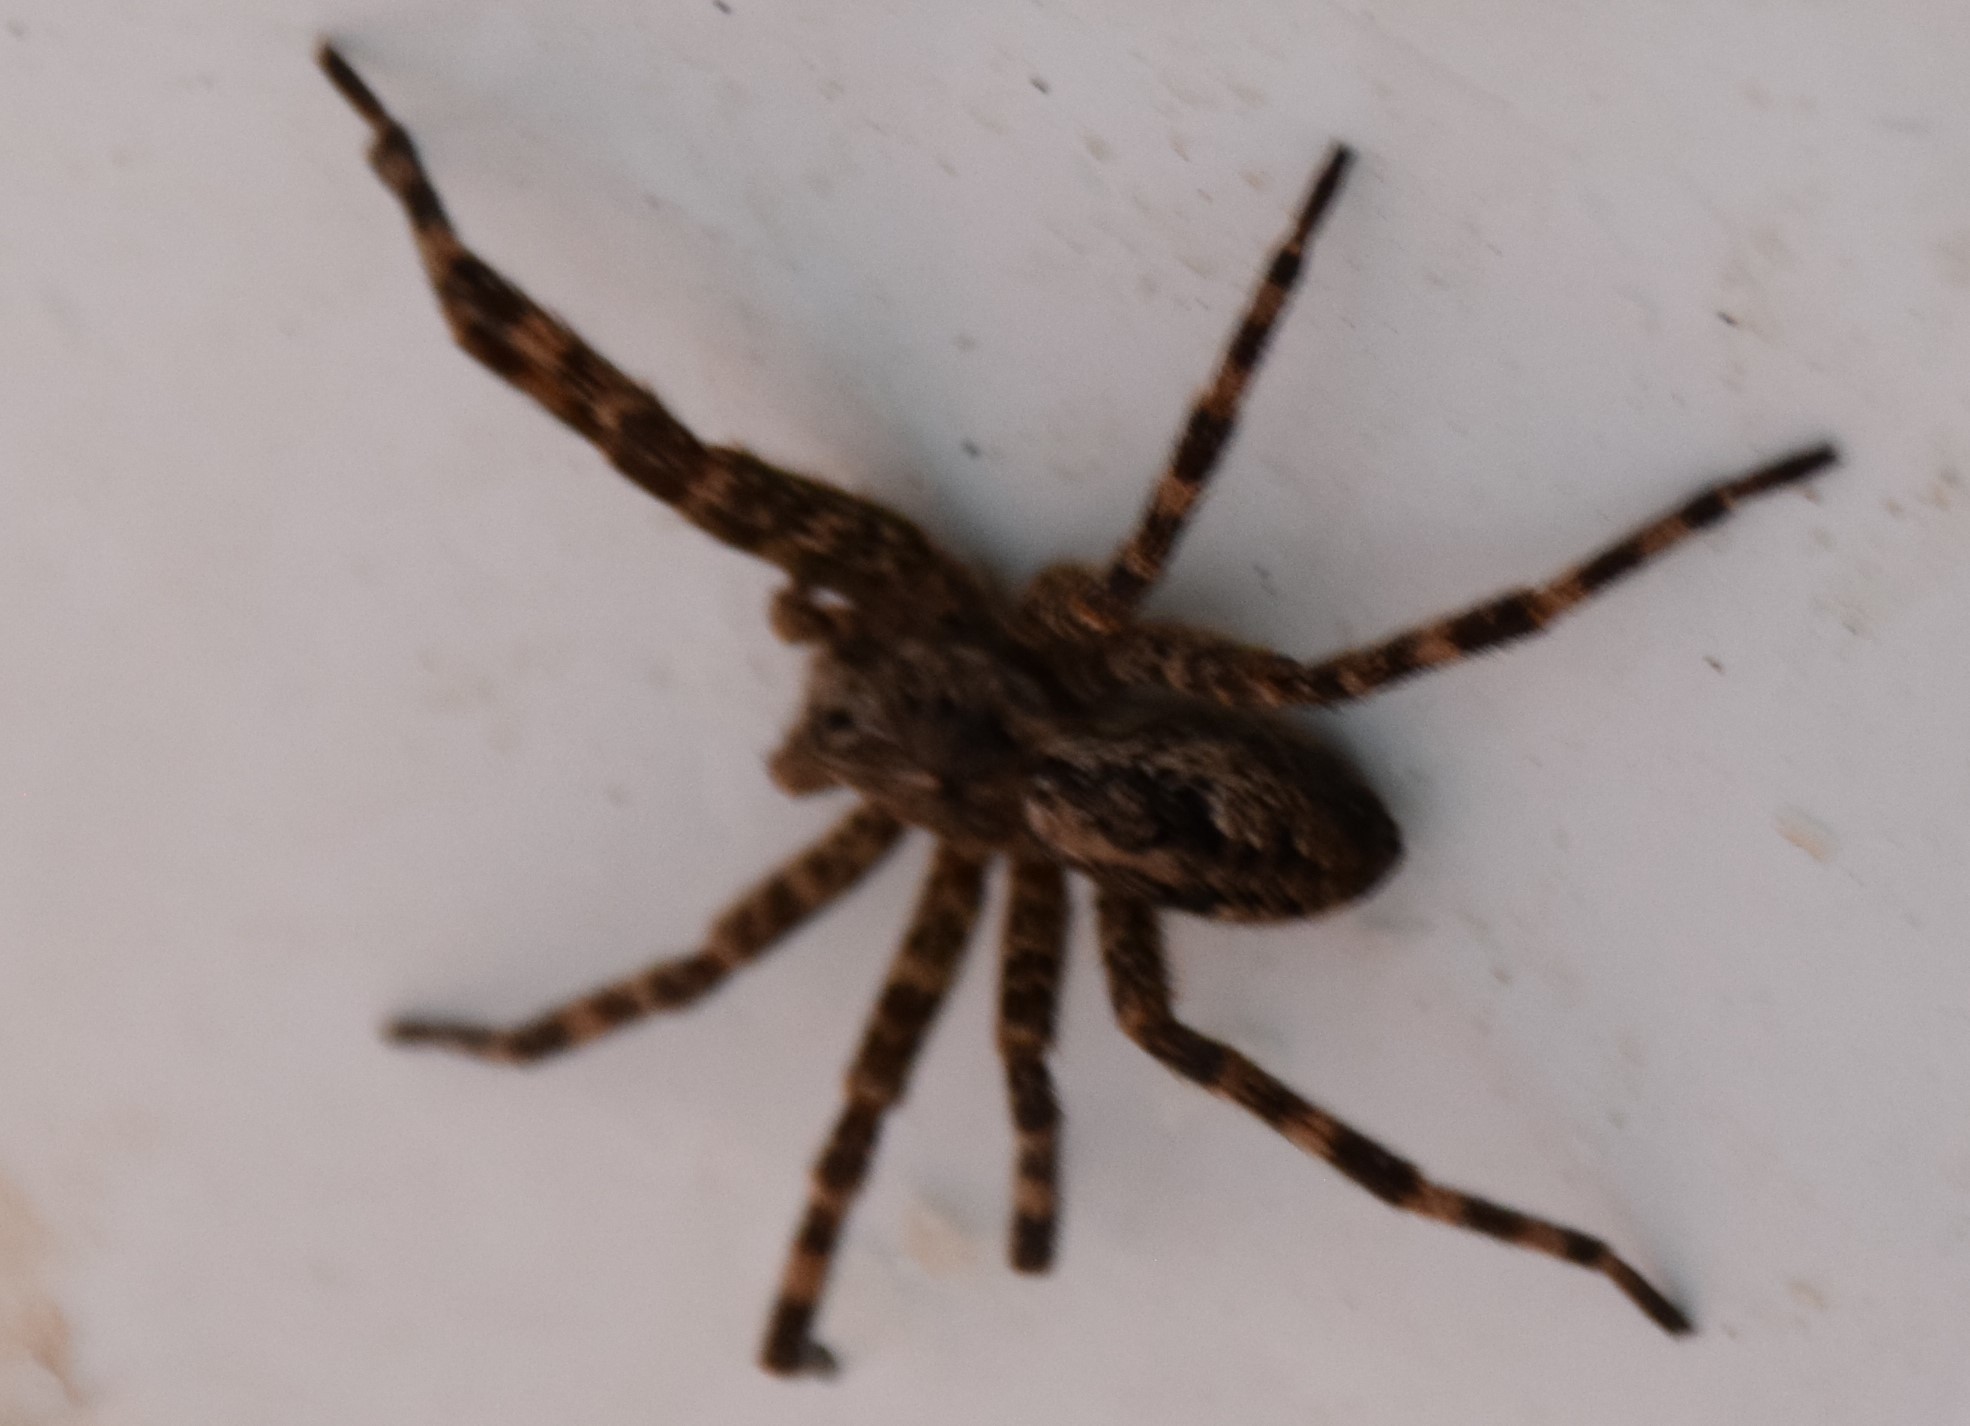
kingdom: Animalia
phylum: Arthropoda
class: Arachnida
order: Araneae
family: Pisauridae
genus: Dolomedes
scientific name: Dolomedes tenebrosus
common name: Dark fishing spider
